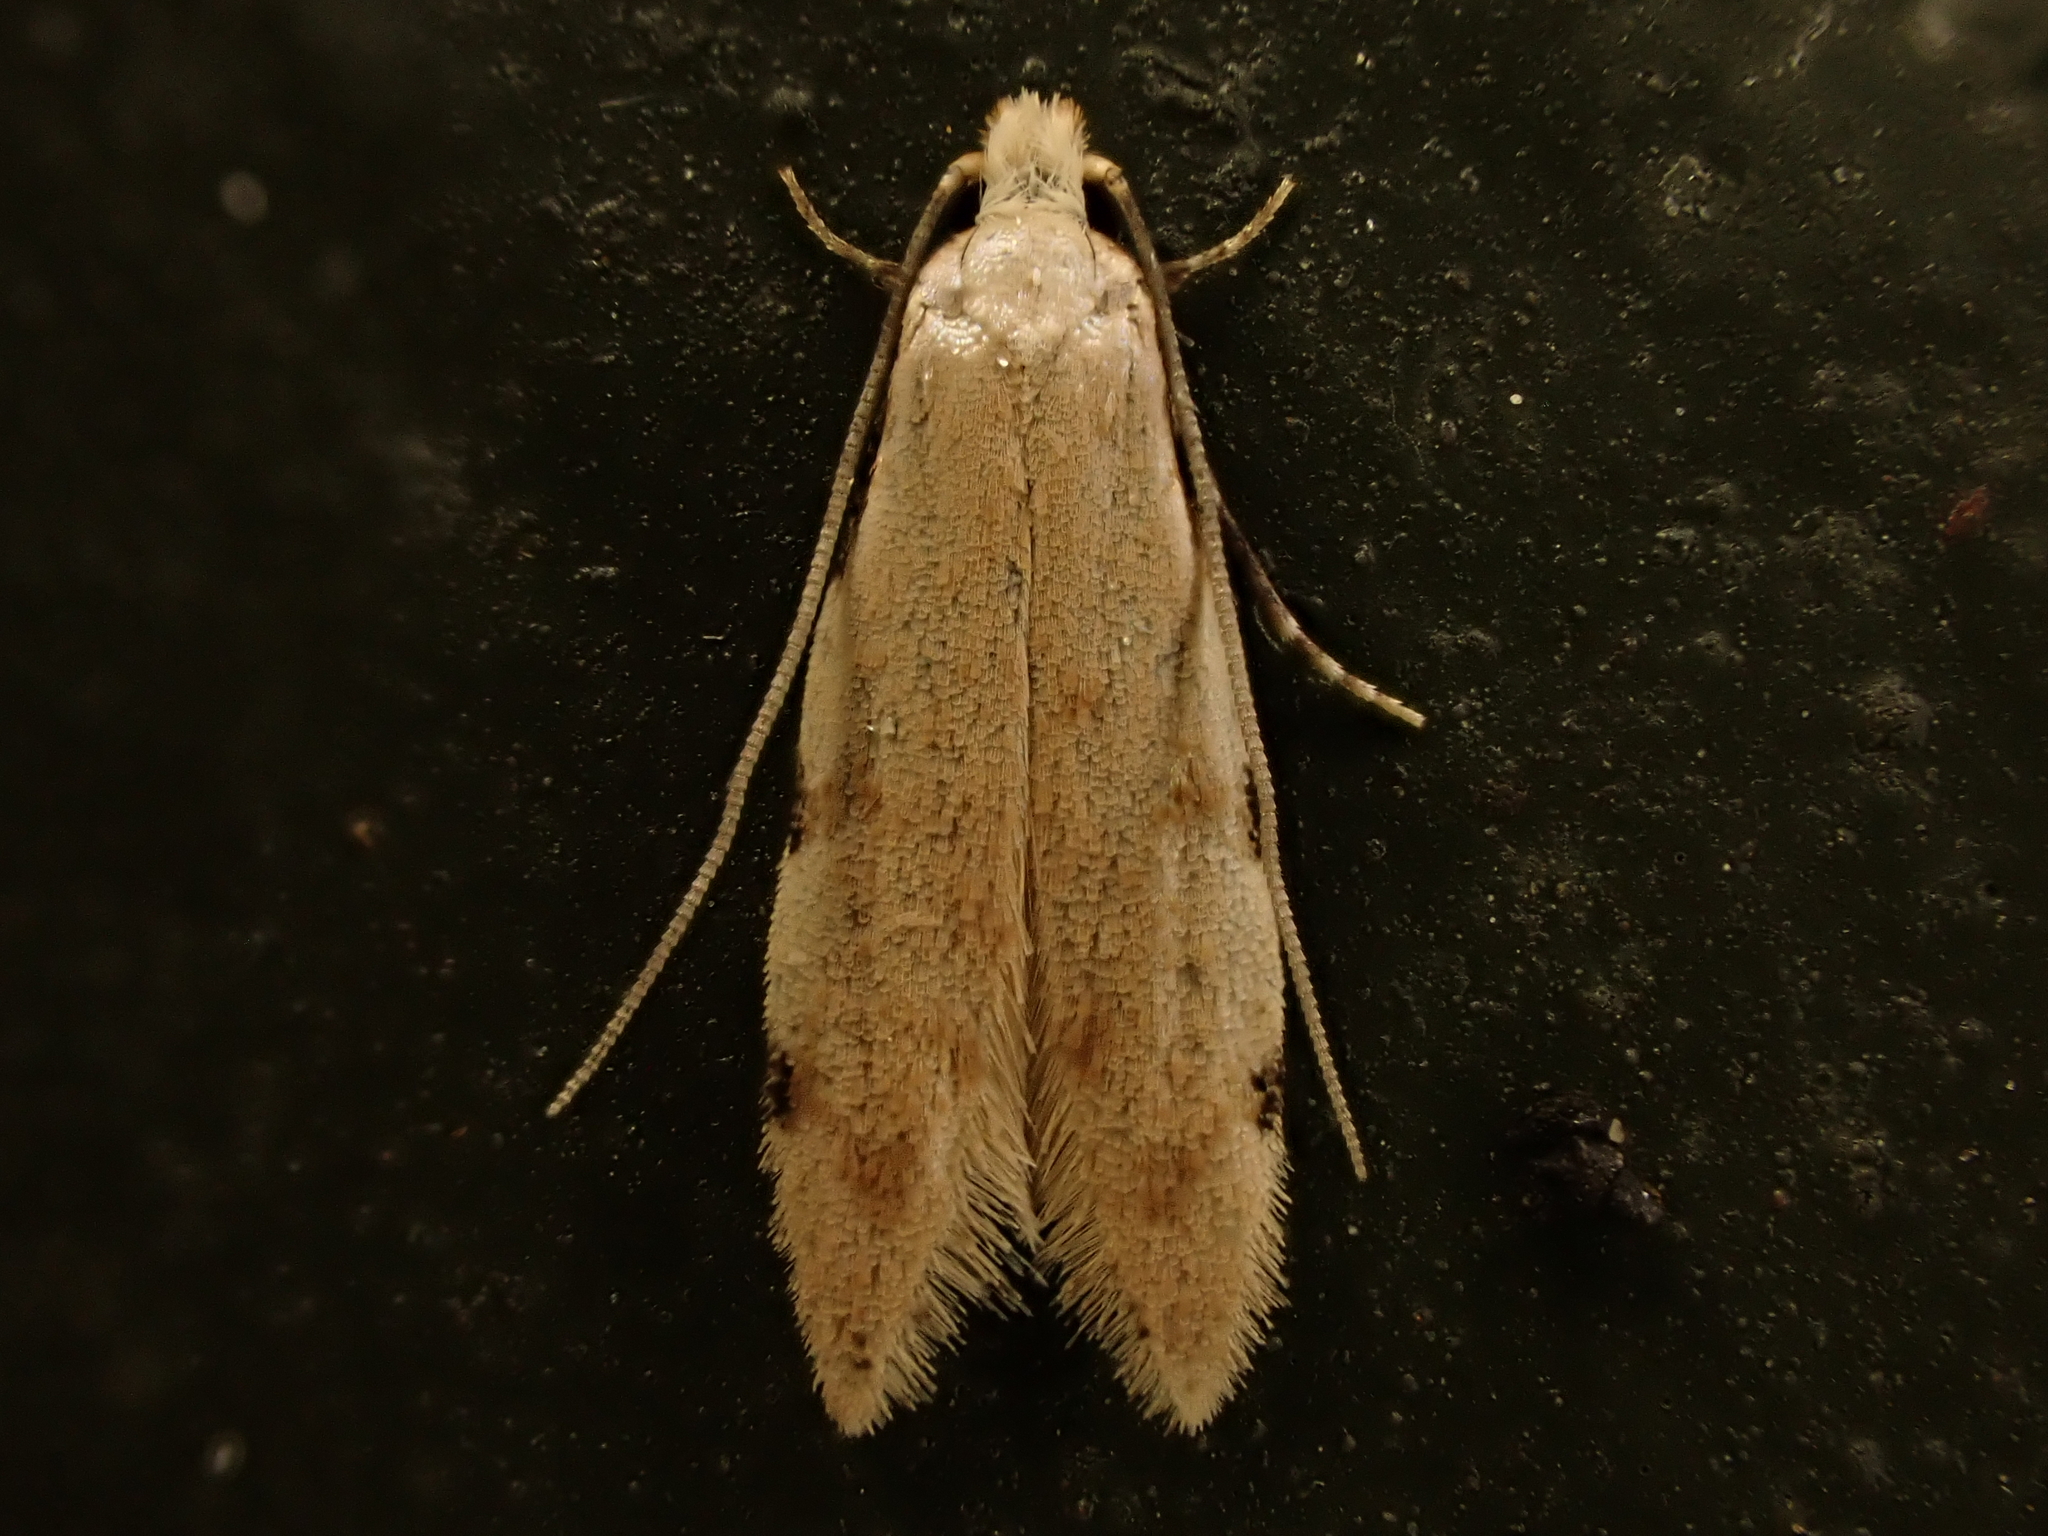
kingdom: Animalia
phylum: Arthropoda
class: Insecta
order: Lepidoptera
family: Tineidae
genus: Endophthora
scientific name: Endophthora omogramma
